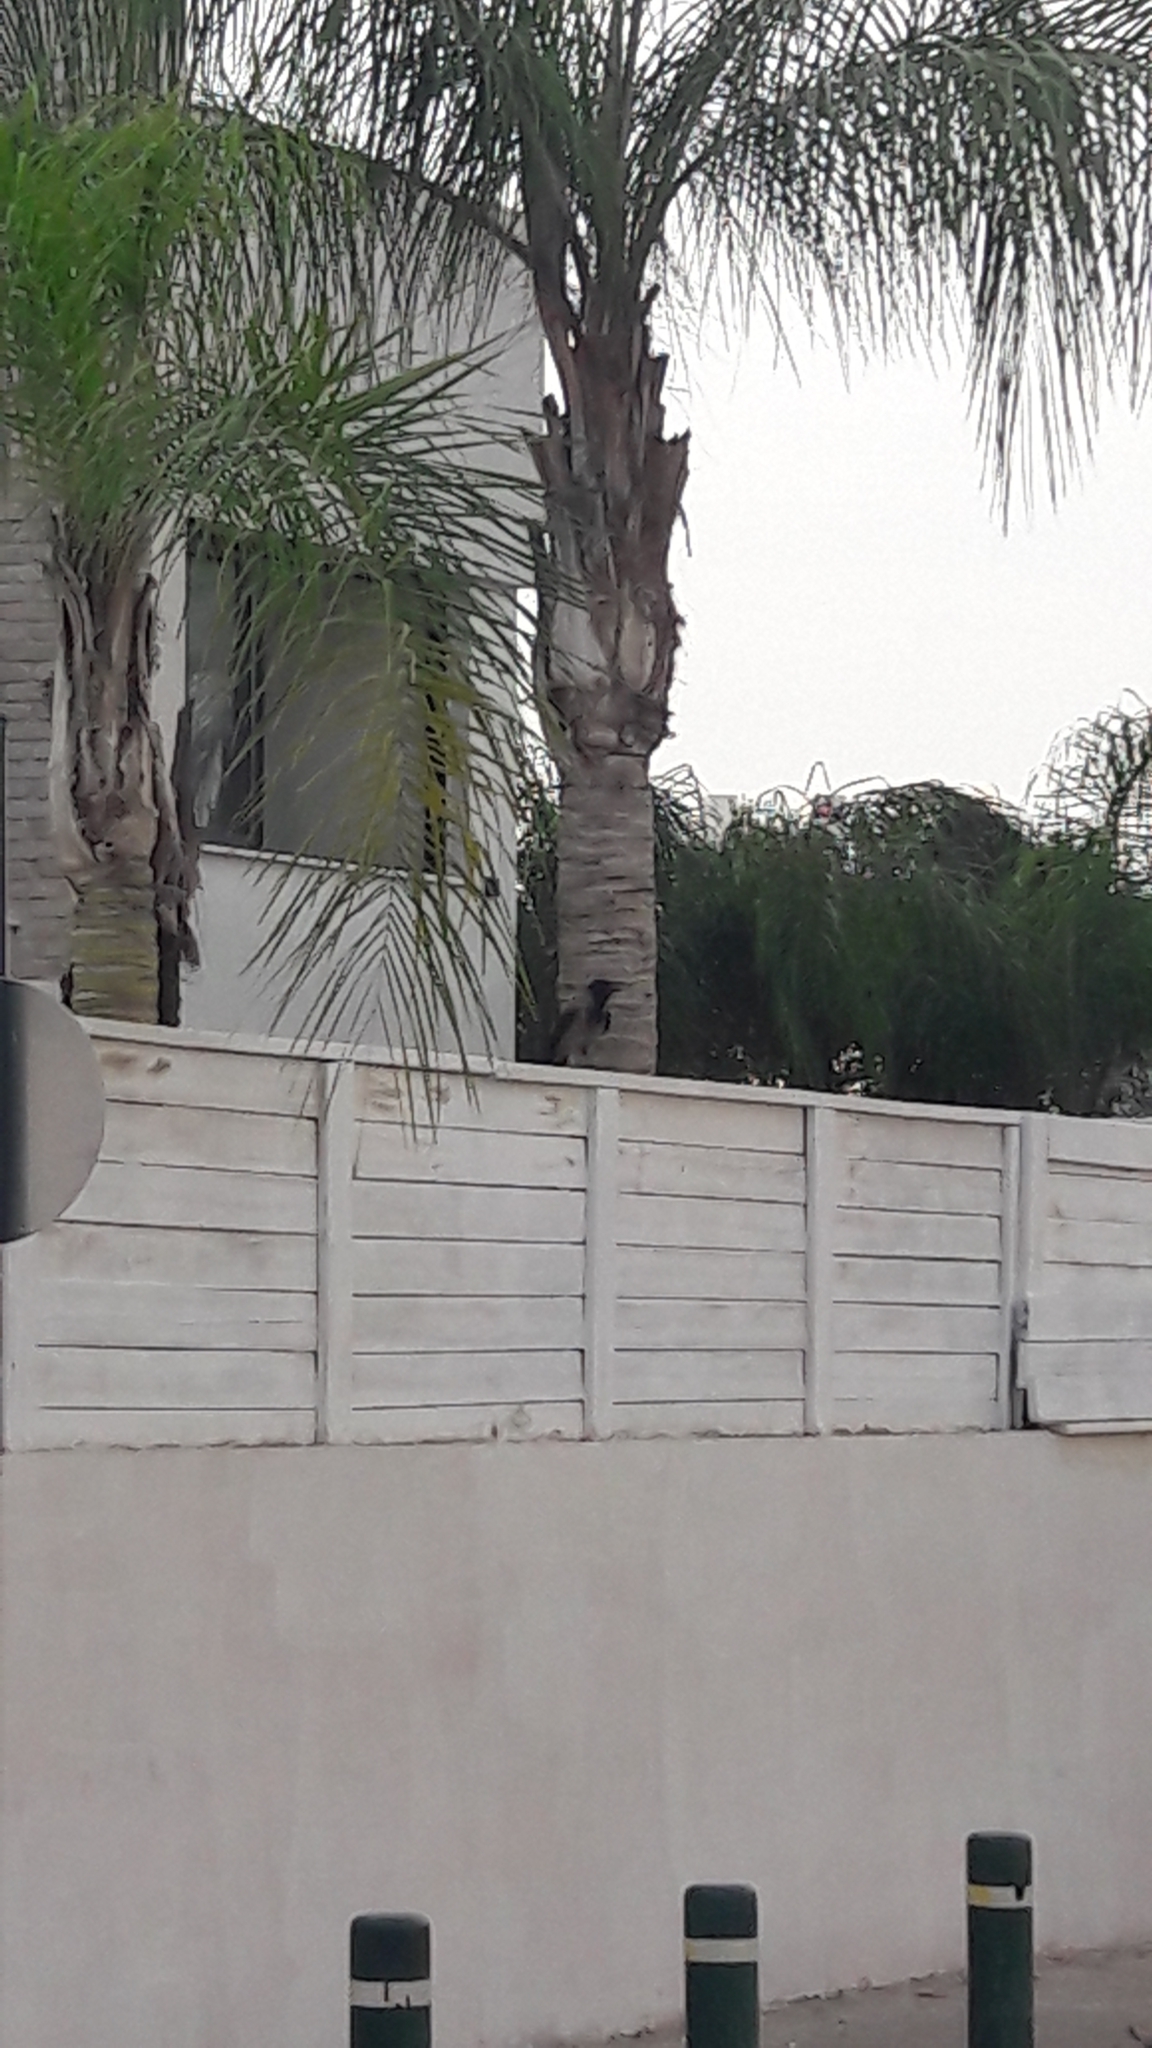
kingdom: Animalia
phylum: Chordata
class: Aves
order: Passeriformes
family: Corvidae
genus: Corvus
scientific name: Corvus cornix
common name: Hooded crow
